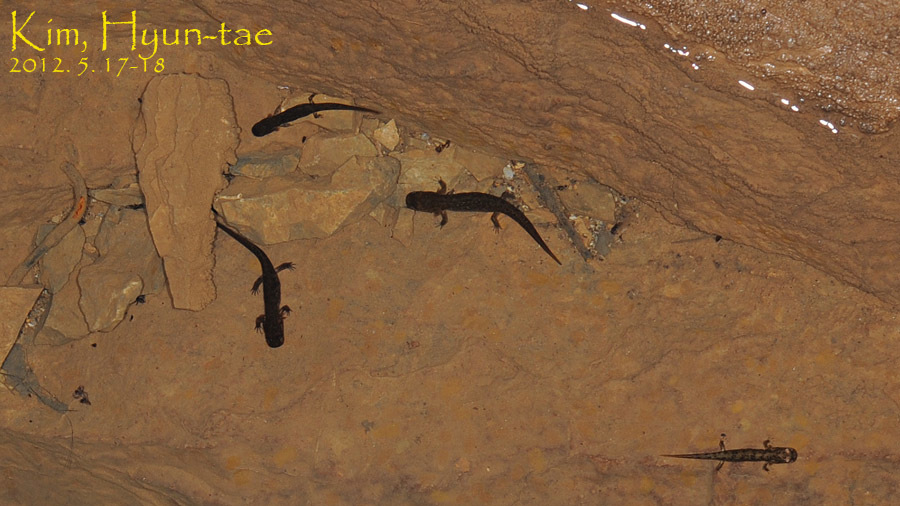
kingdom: Animalia
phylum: Chordata
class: Amphibia
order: Caudata
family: Hynobiidae
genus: Onychodactylus
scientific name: Onychodactylus koreanus
